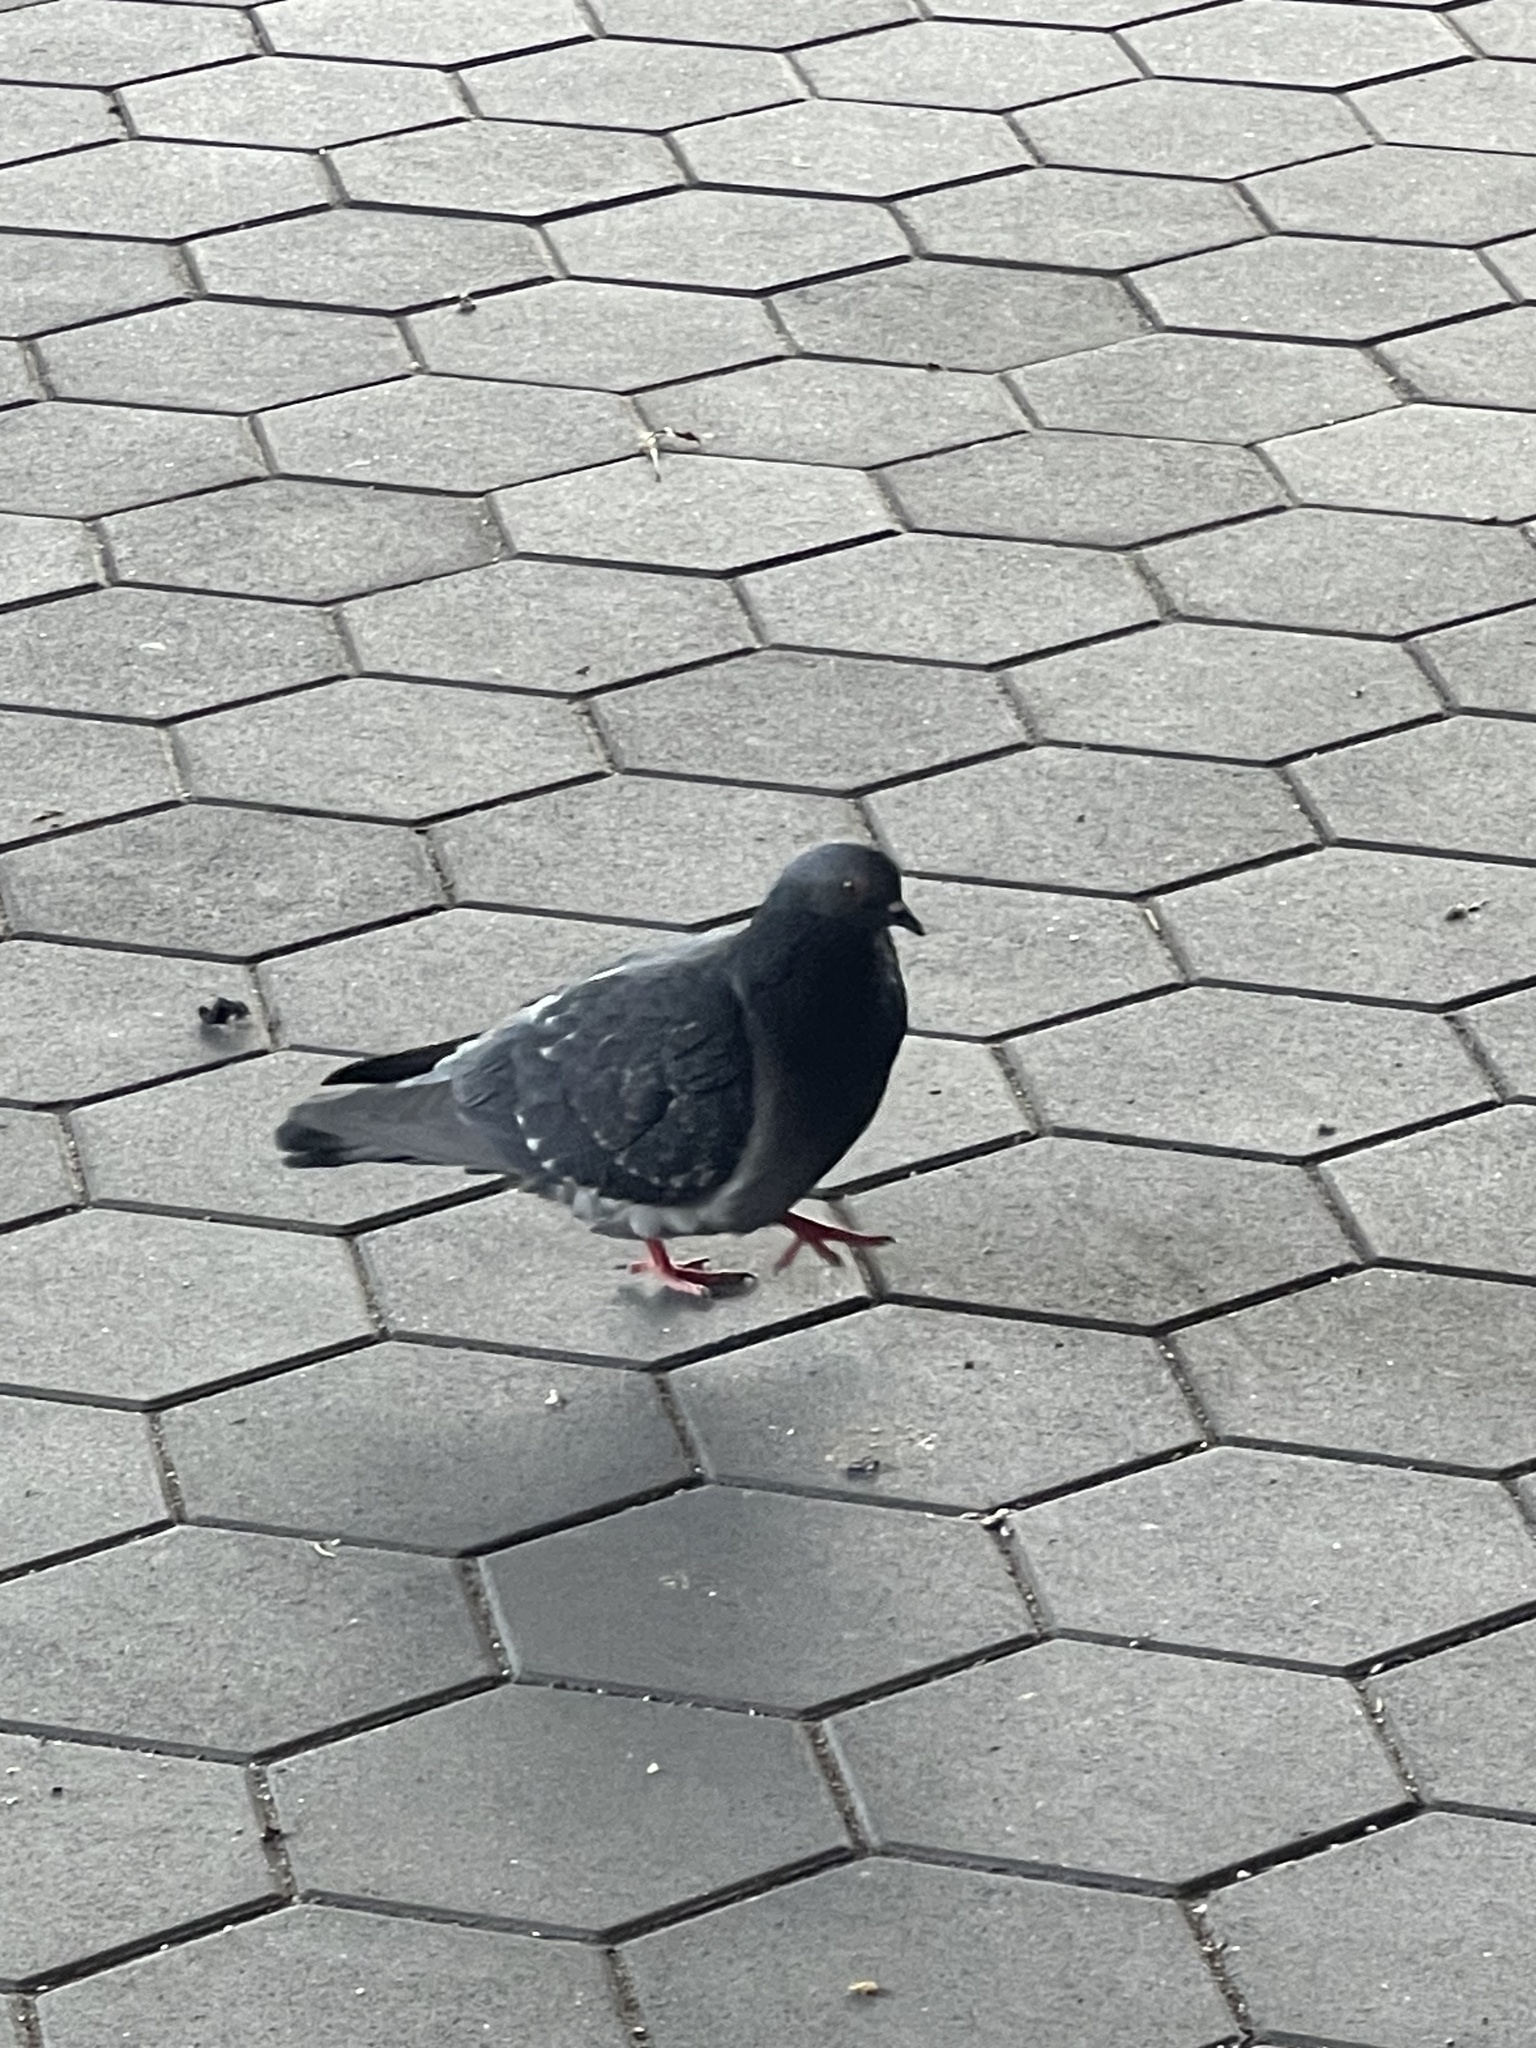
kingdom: Animalia
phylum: Chordata
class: Aves
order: Columbiformes
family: Columbidae
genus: Columba
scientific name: Columba livia
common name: Rock pigeon
